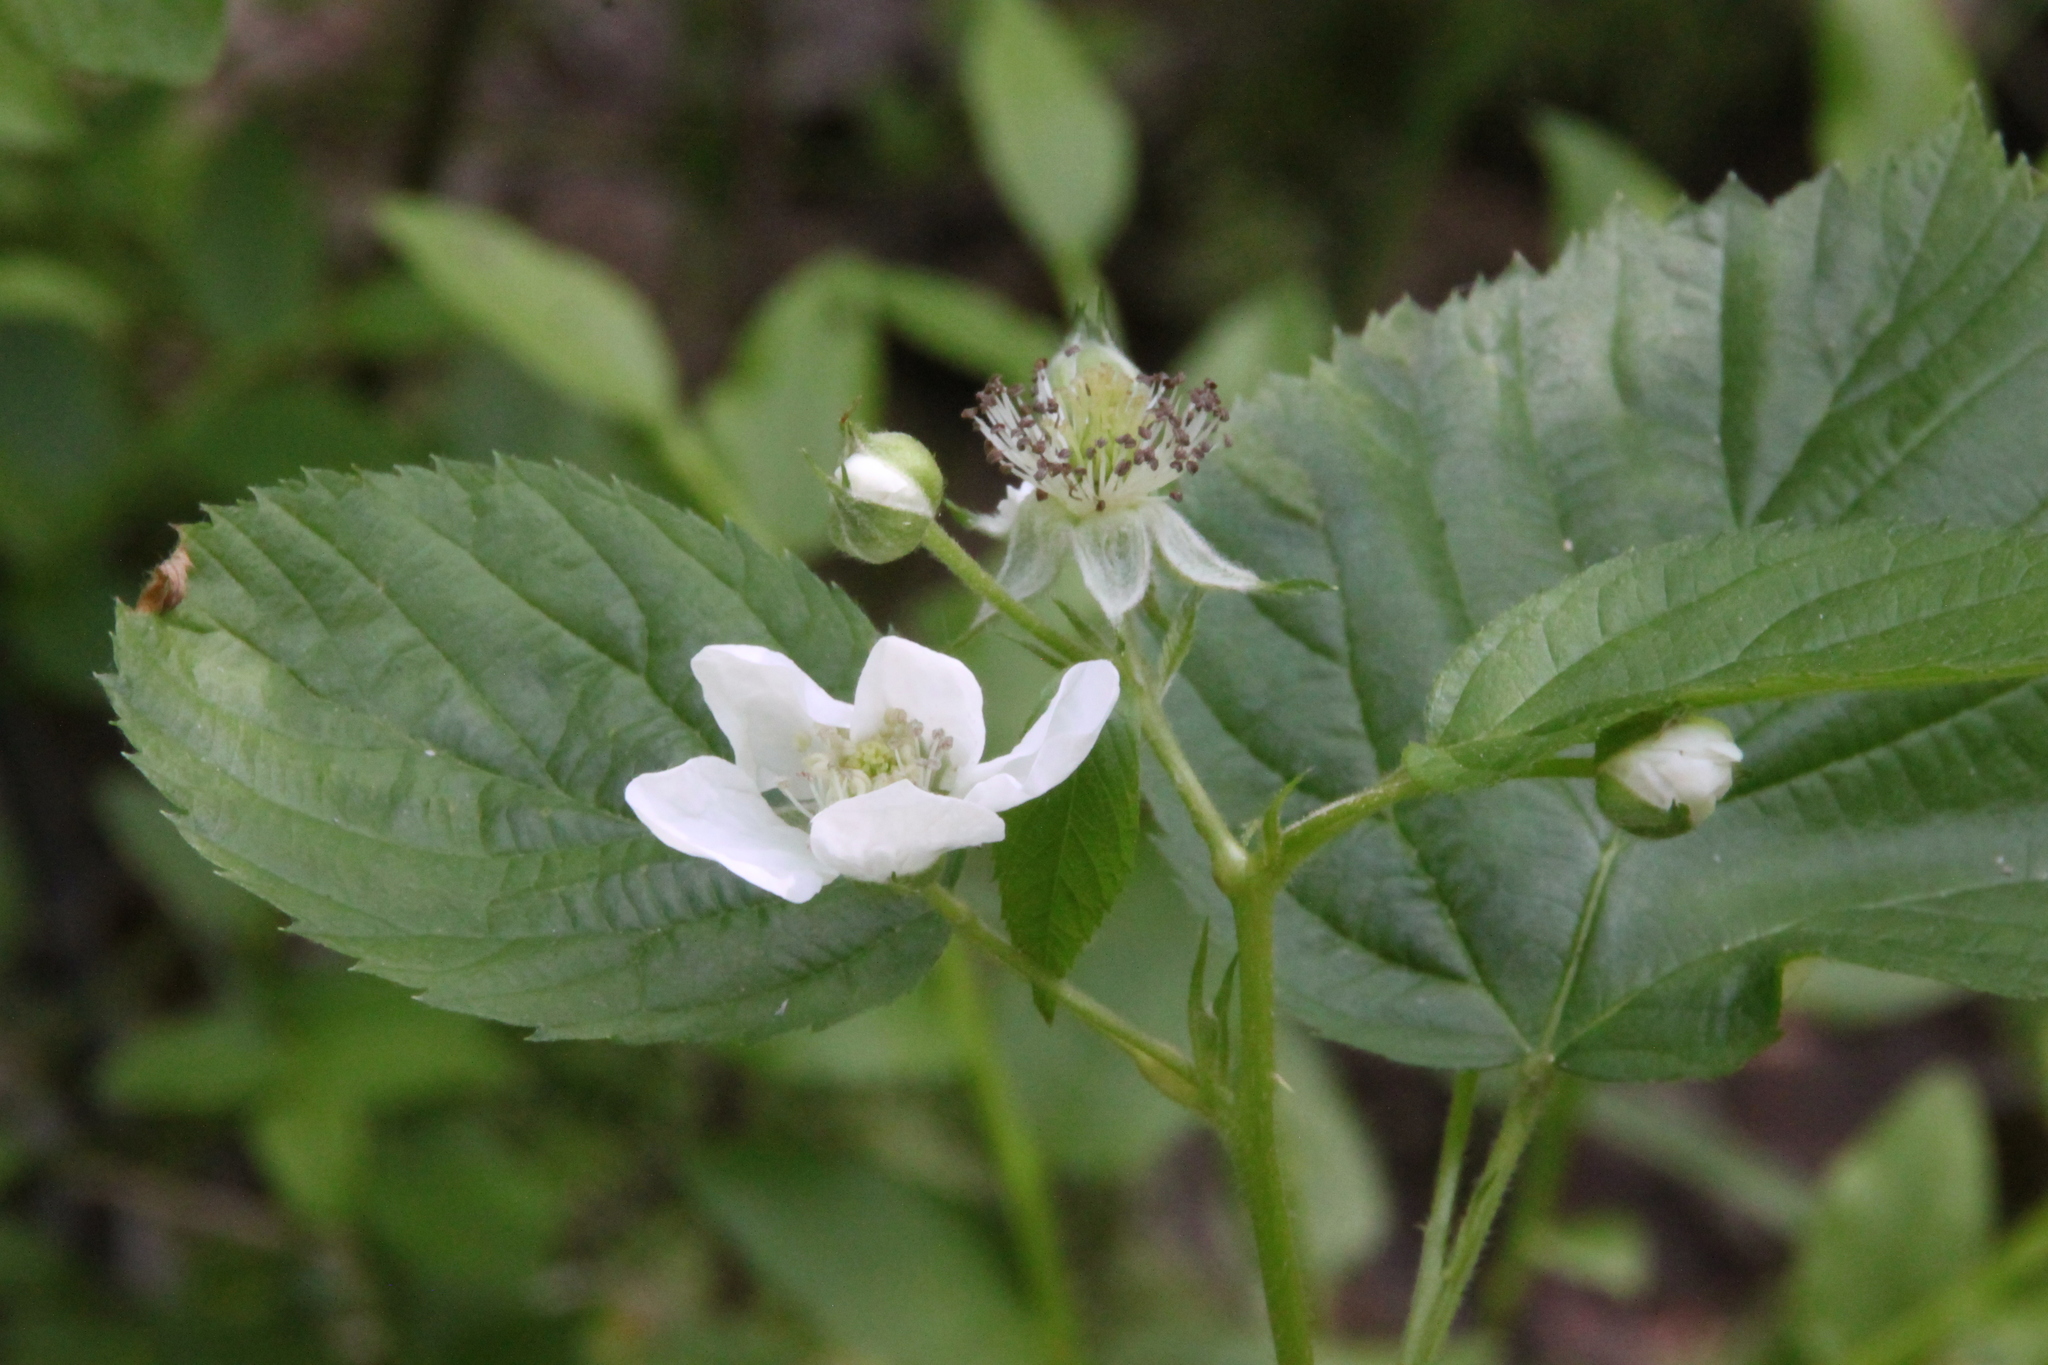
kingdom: Plantae
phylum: Tracheophyta
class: Magnoliopsida
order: Rosales
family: Rosaceae
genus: Rubus
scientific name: Rubus polonicus
